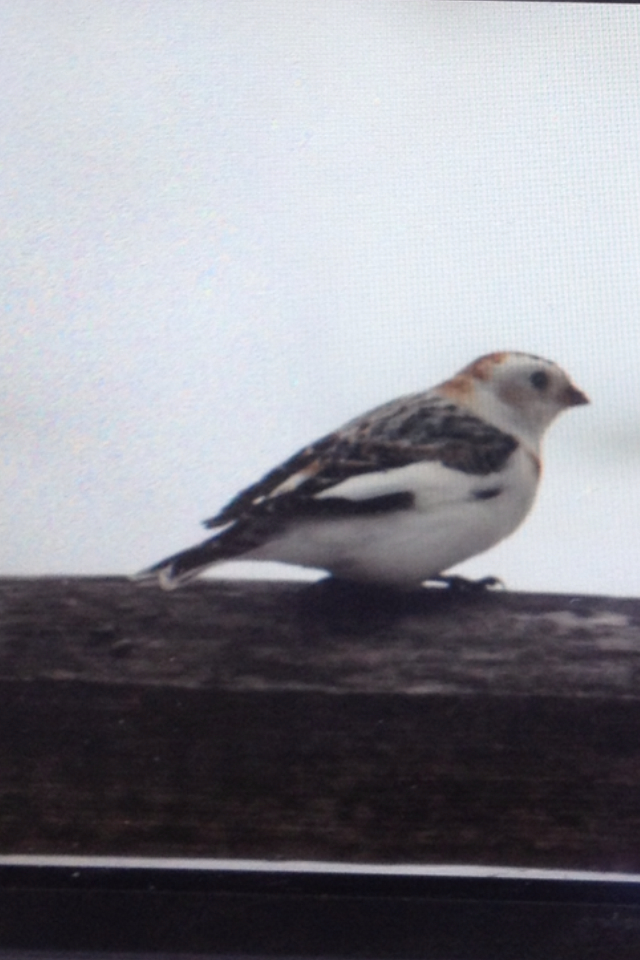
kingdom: Animalia
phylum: Chordata
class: Aves
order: Passeriformes
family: Calcariidae
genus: Plectrophenax
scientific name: Plectrophenax nivalis
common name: Snow bunting
